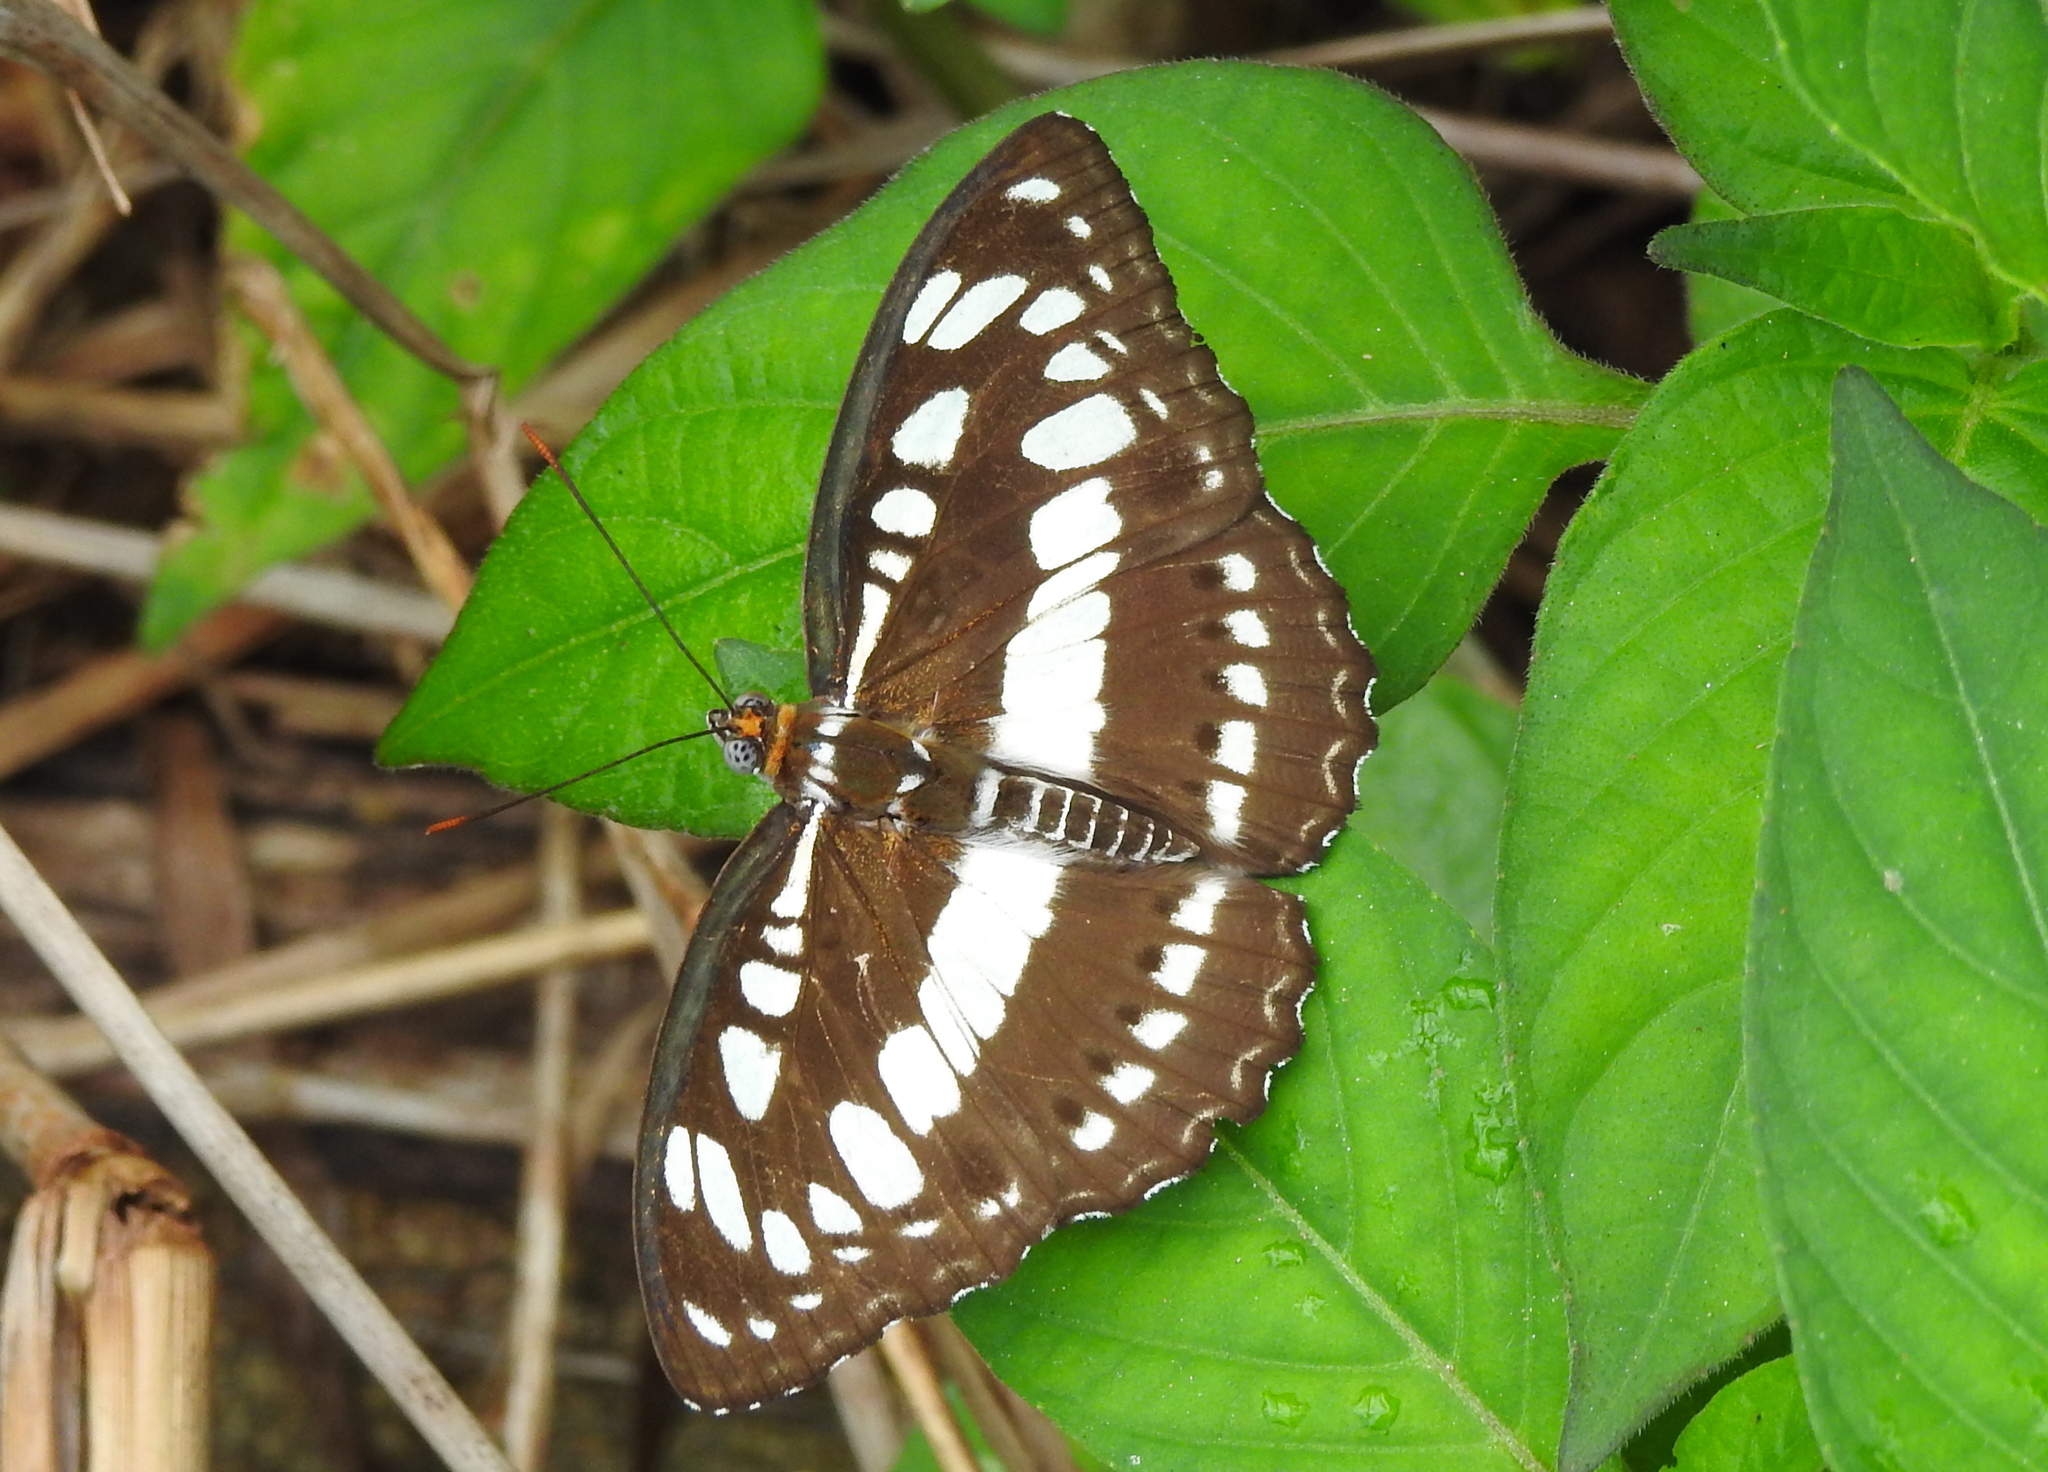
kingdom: Animalia
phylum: Arthropoda
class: Insecta
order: Lepidoptera
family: Nymphalidae
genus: Parathyma
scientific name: Parathyma perius
